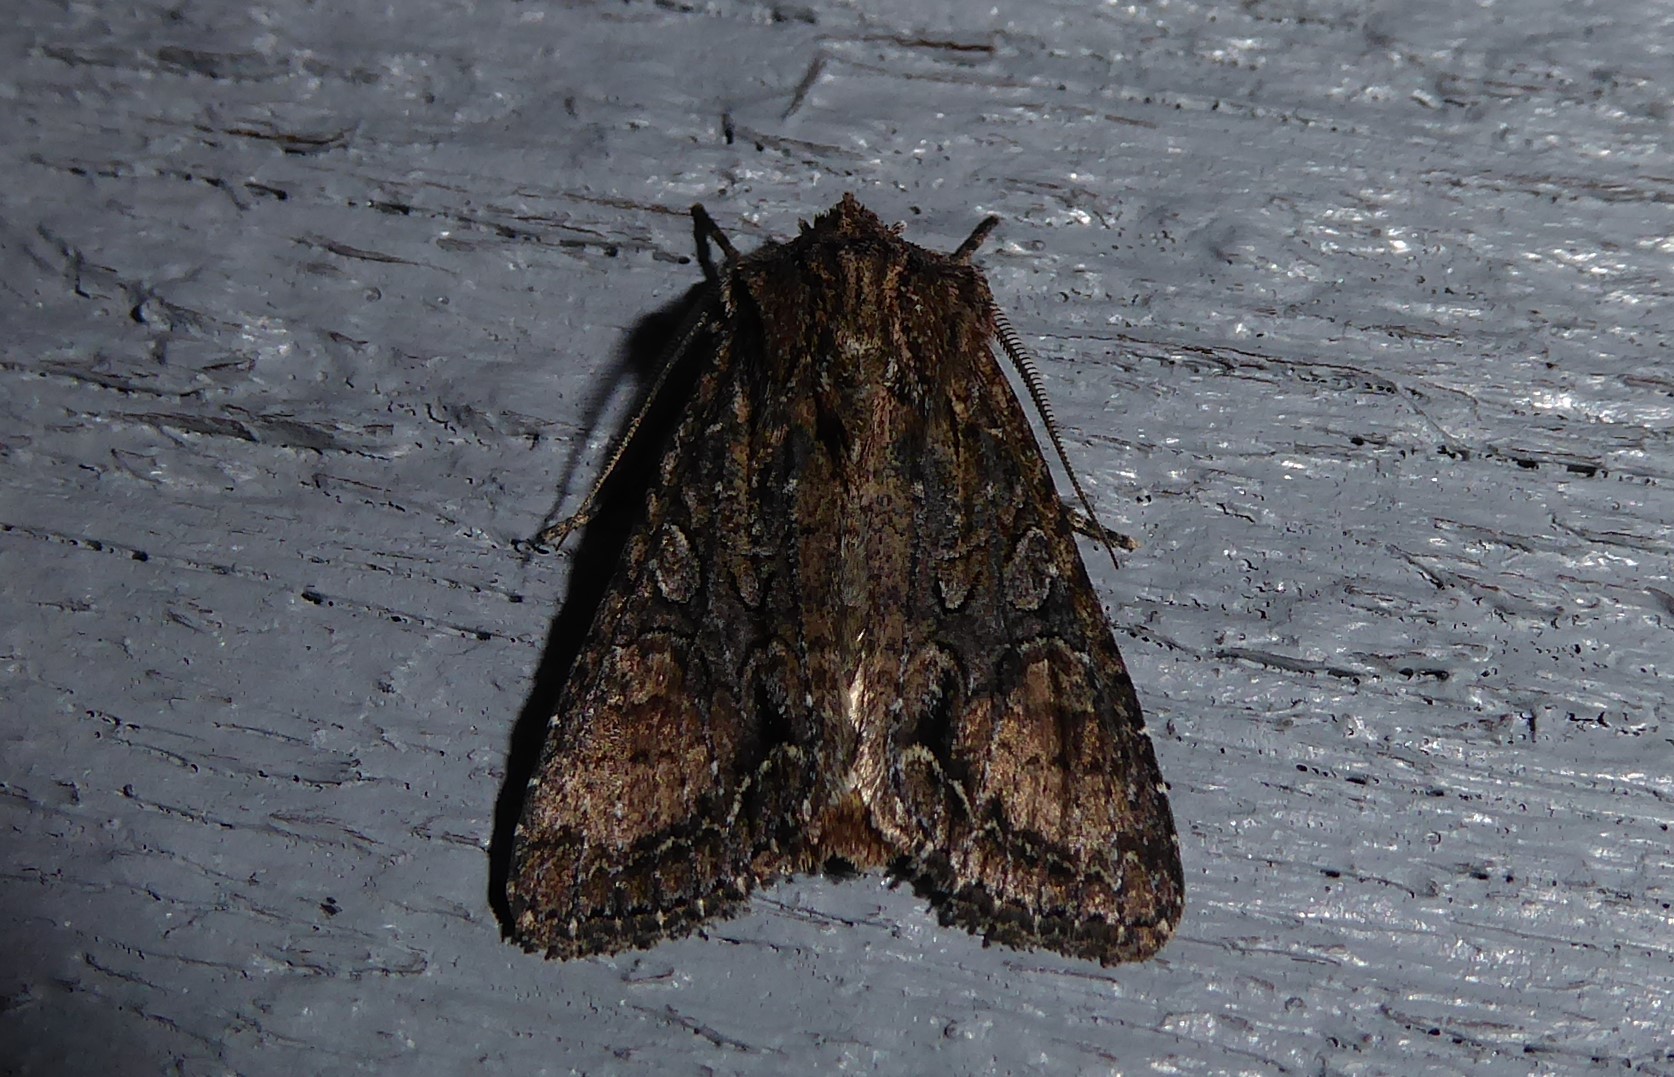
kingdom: Animalia
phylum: Arthropoda
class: Insecta
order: Lepidoptera
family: Noctuidae
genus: Ichneutica
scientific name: Ichneutica mutans
